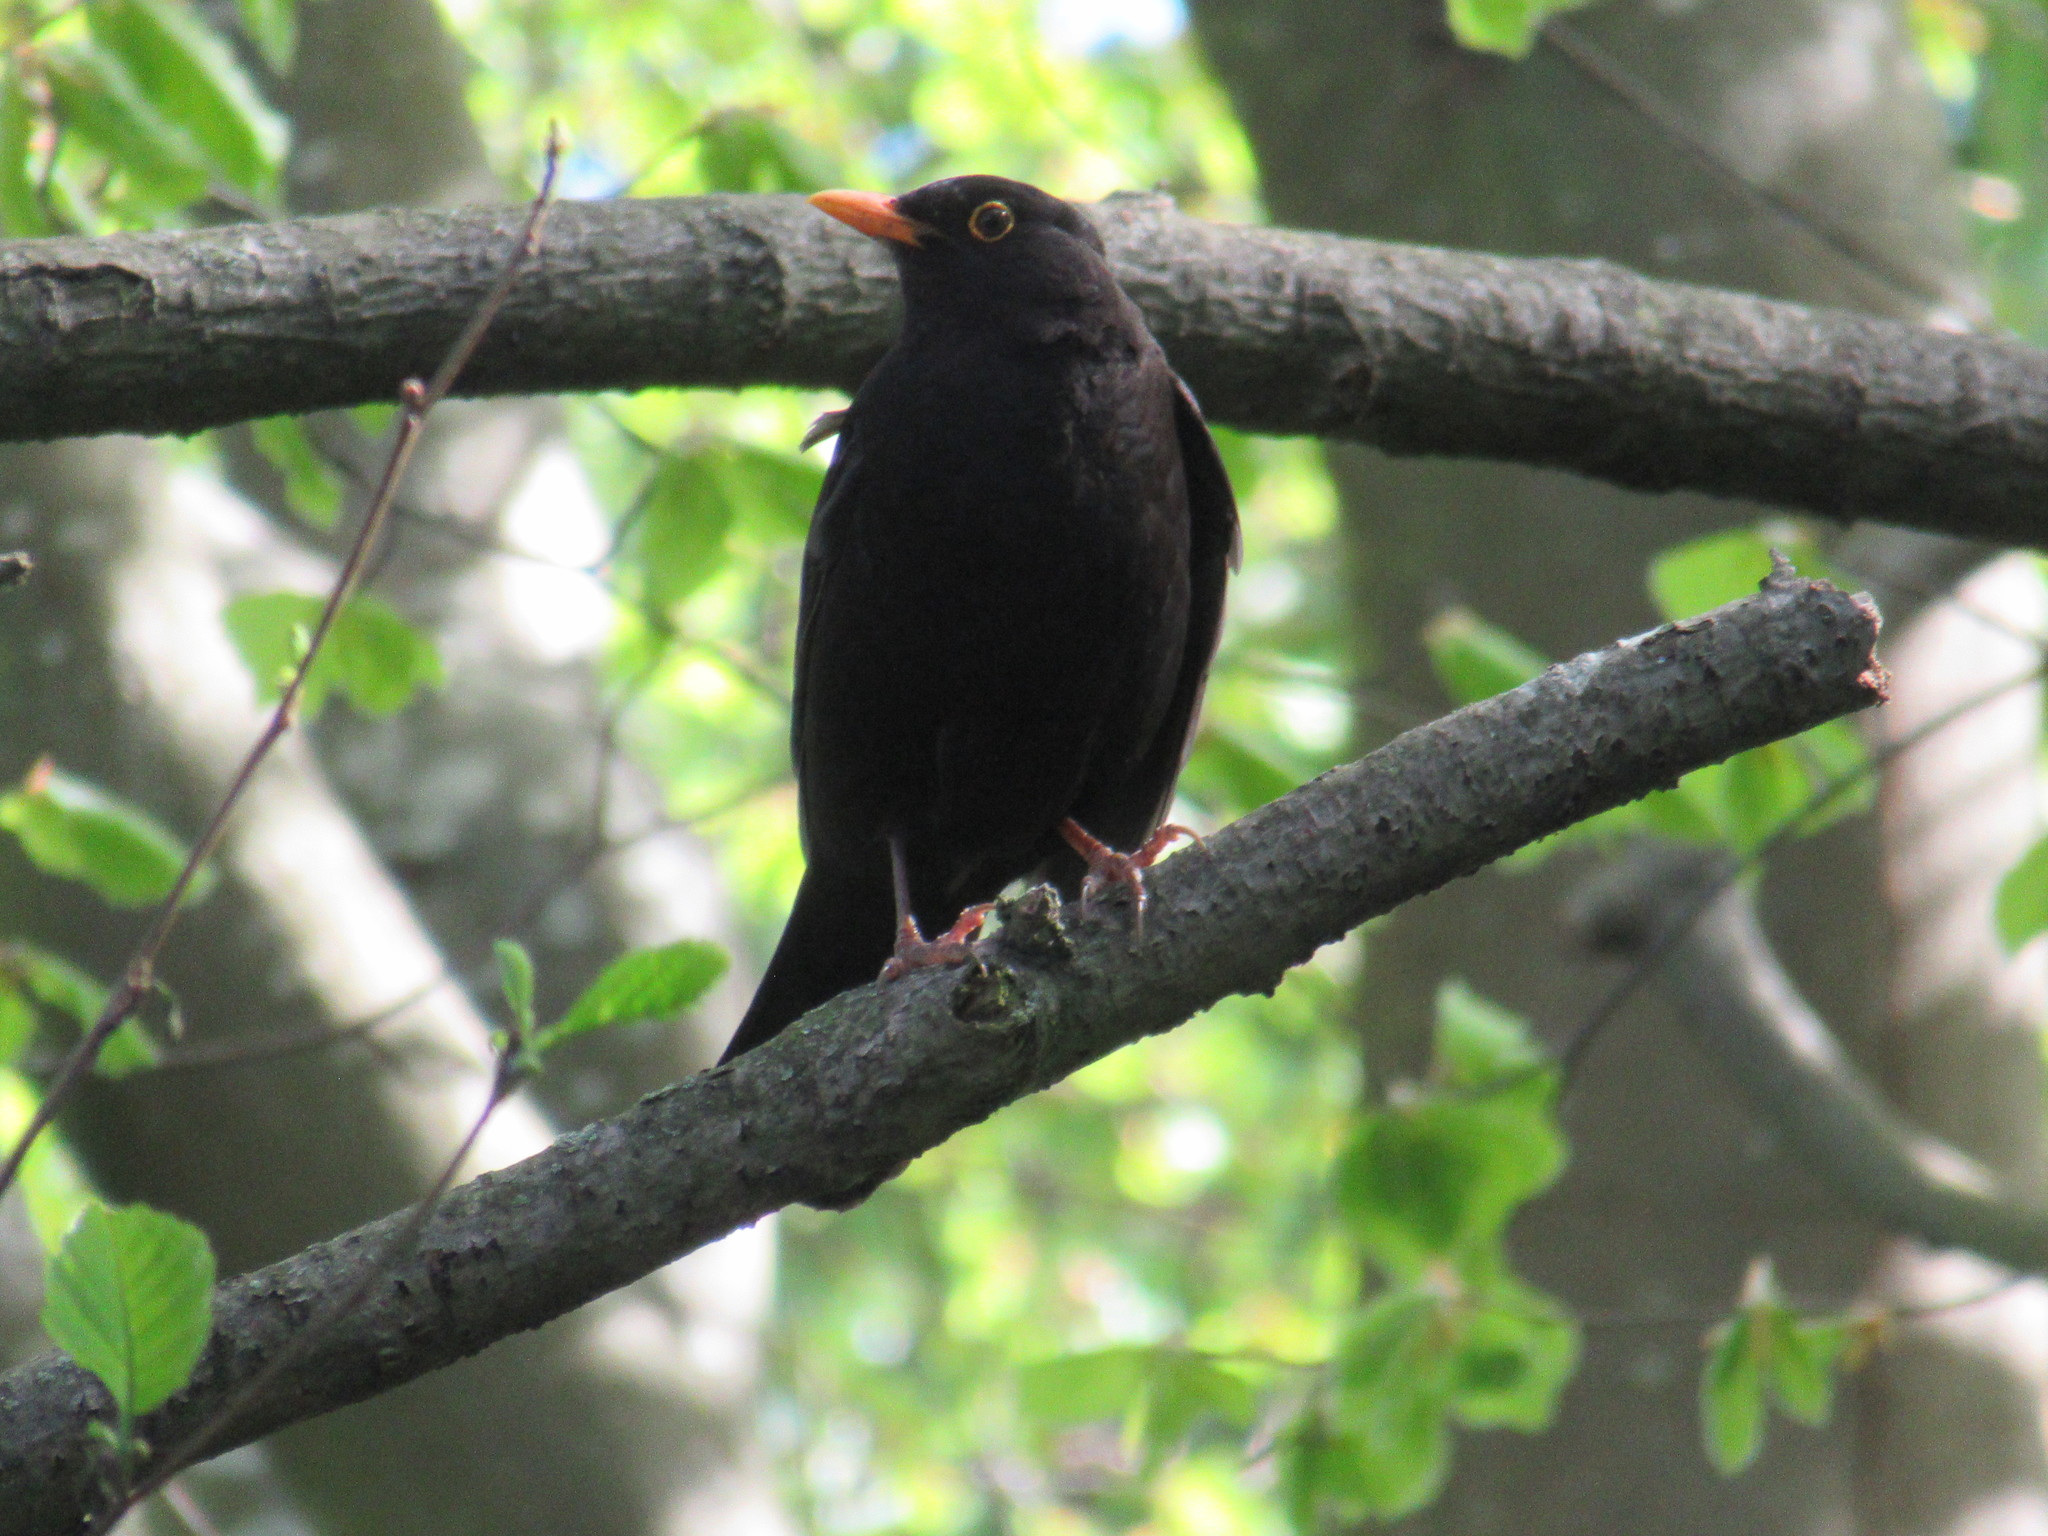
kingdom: Animalia
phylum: Chordata
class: Aves
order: Passeriformes
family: Turdidae
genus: Turdus
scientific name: Turdus merula
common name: Common blackbird
